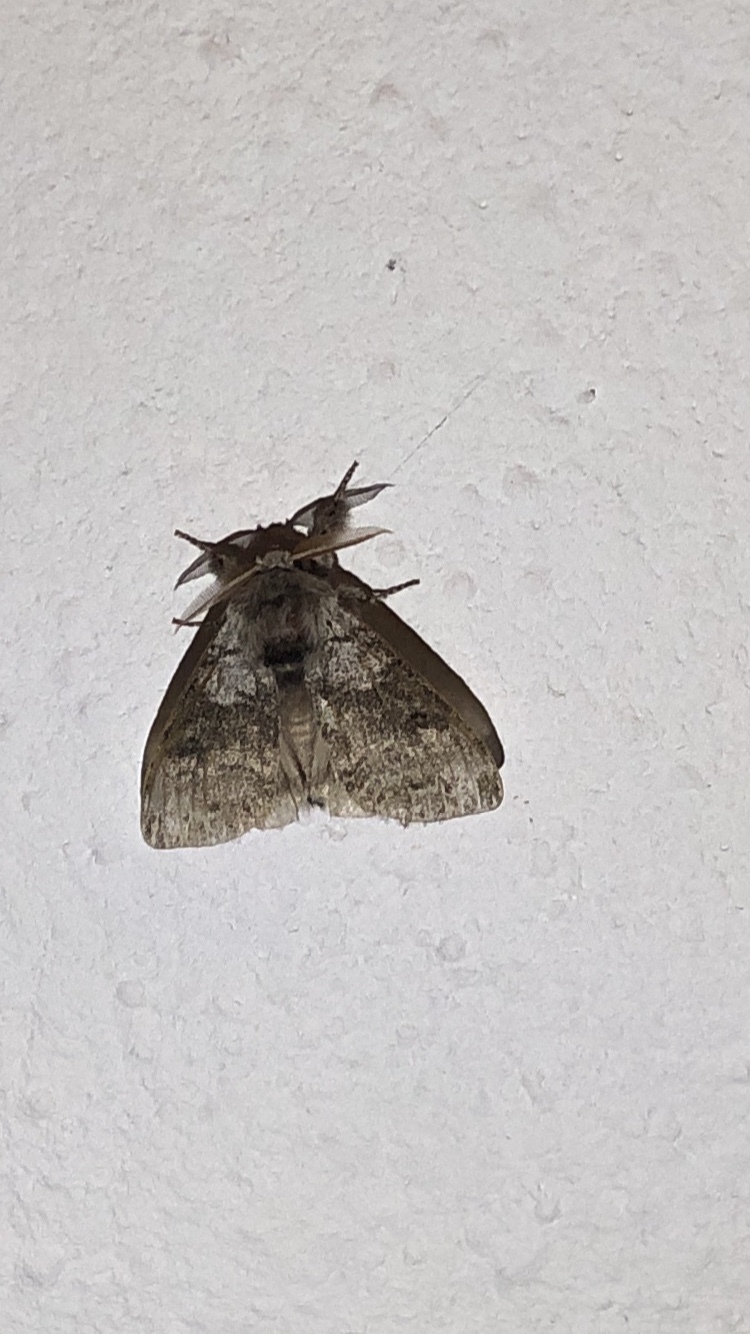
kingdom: Animalia
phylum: Arthropoda
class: Insecta
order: Lepidoptera
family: Erebidae
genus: Calliteara
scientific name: Calliteara pudibunda
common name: Pale tussock
